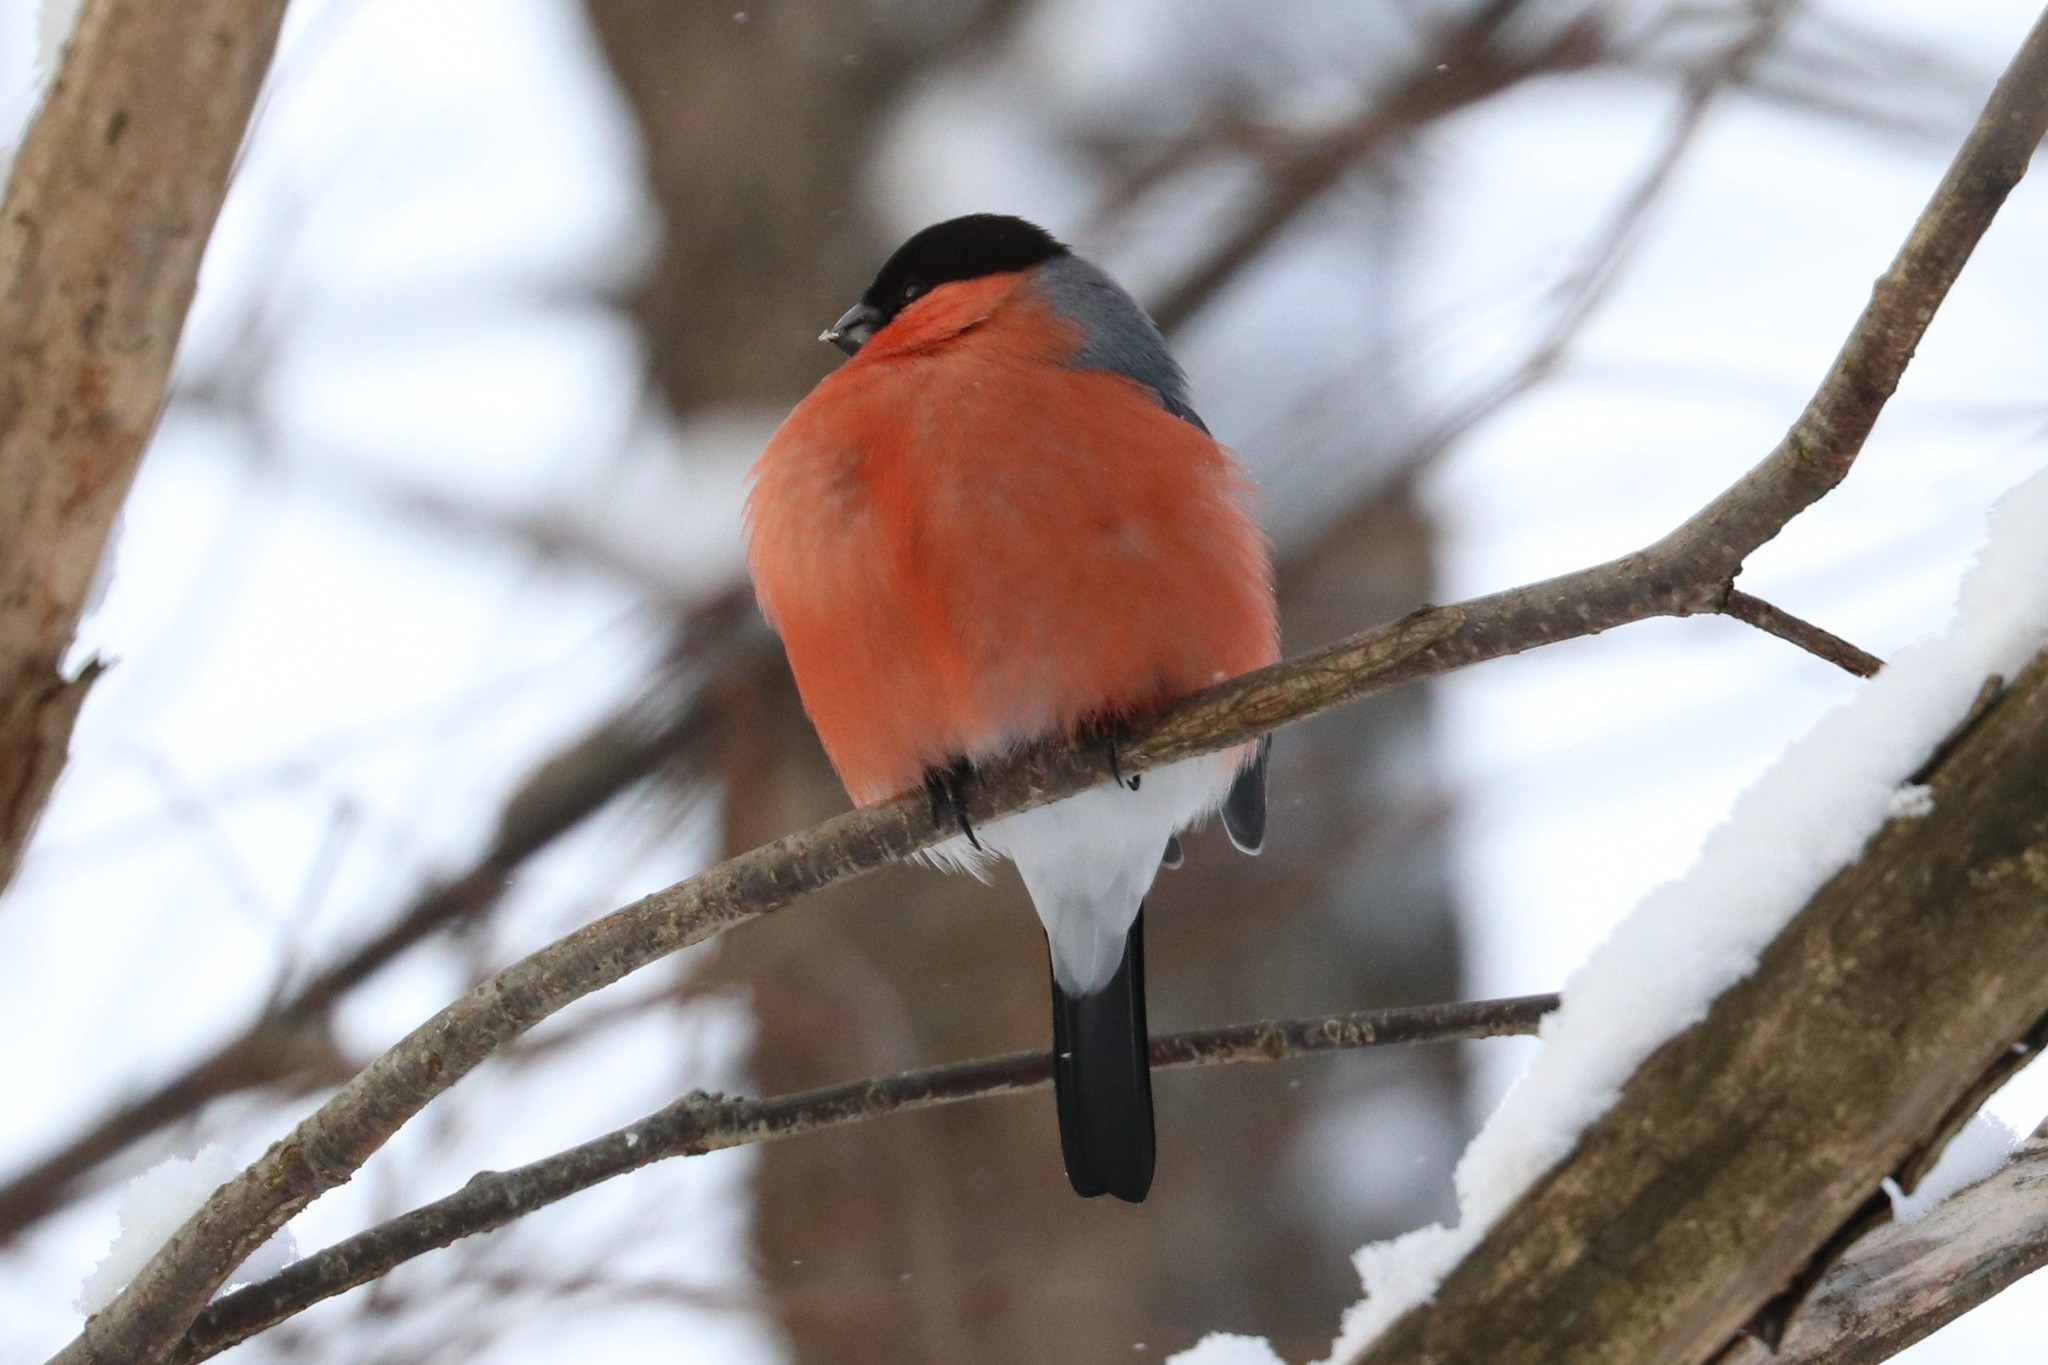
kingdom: Animalia
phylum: Chordata
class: Aves
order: Passeriformes
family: Fringillidae
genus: Pyrrhula
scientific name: Pyrrhula pyrrhula
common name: Eurasian bullfinch
